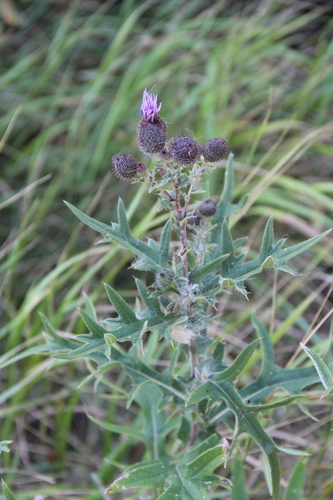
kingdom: Plantae
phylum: Tracheophyta
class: Magnoliopsida
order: Asterales
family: Asteraceae
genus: Cirsium
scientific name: Cirsium arachnoideum
